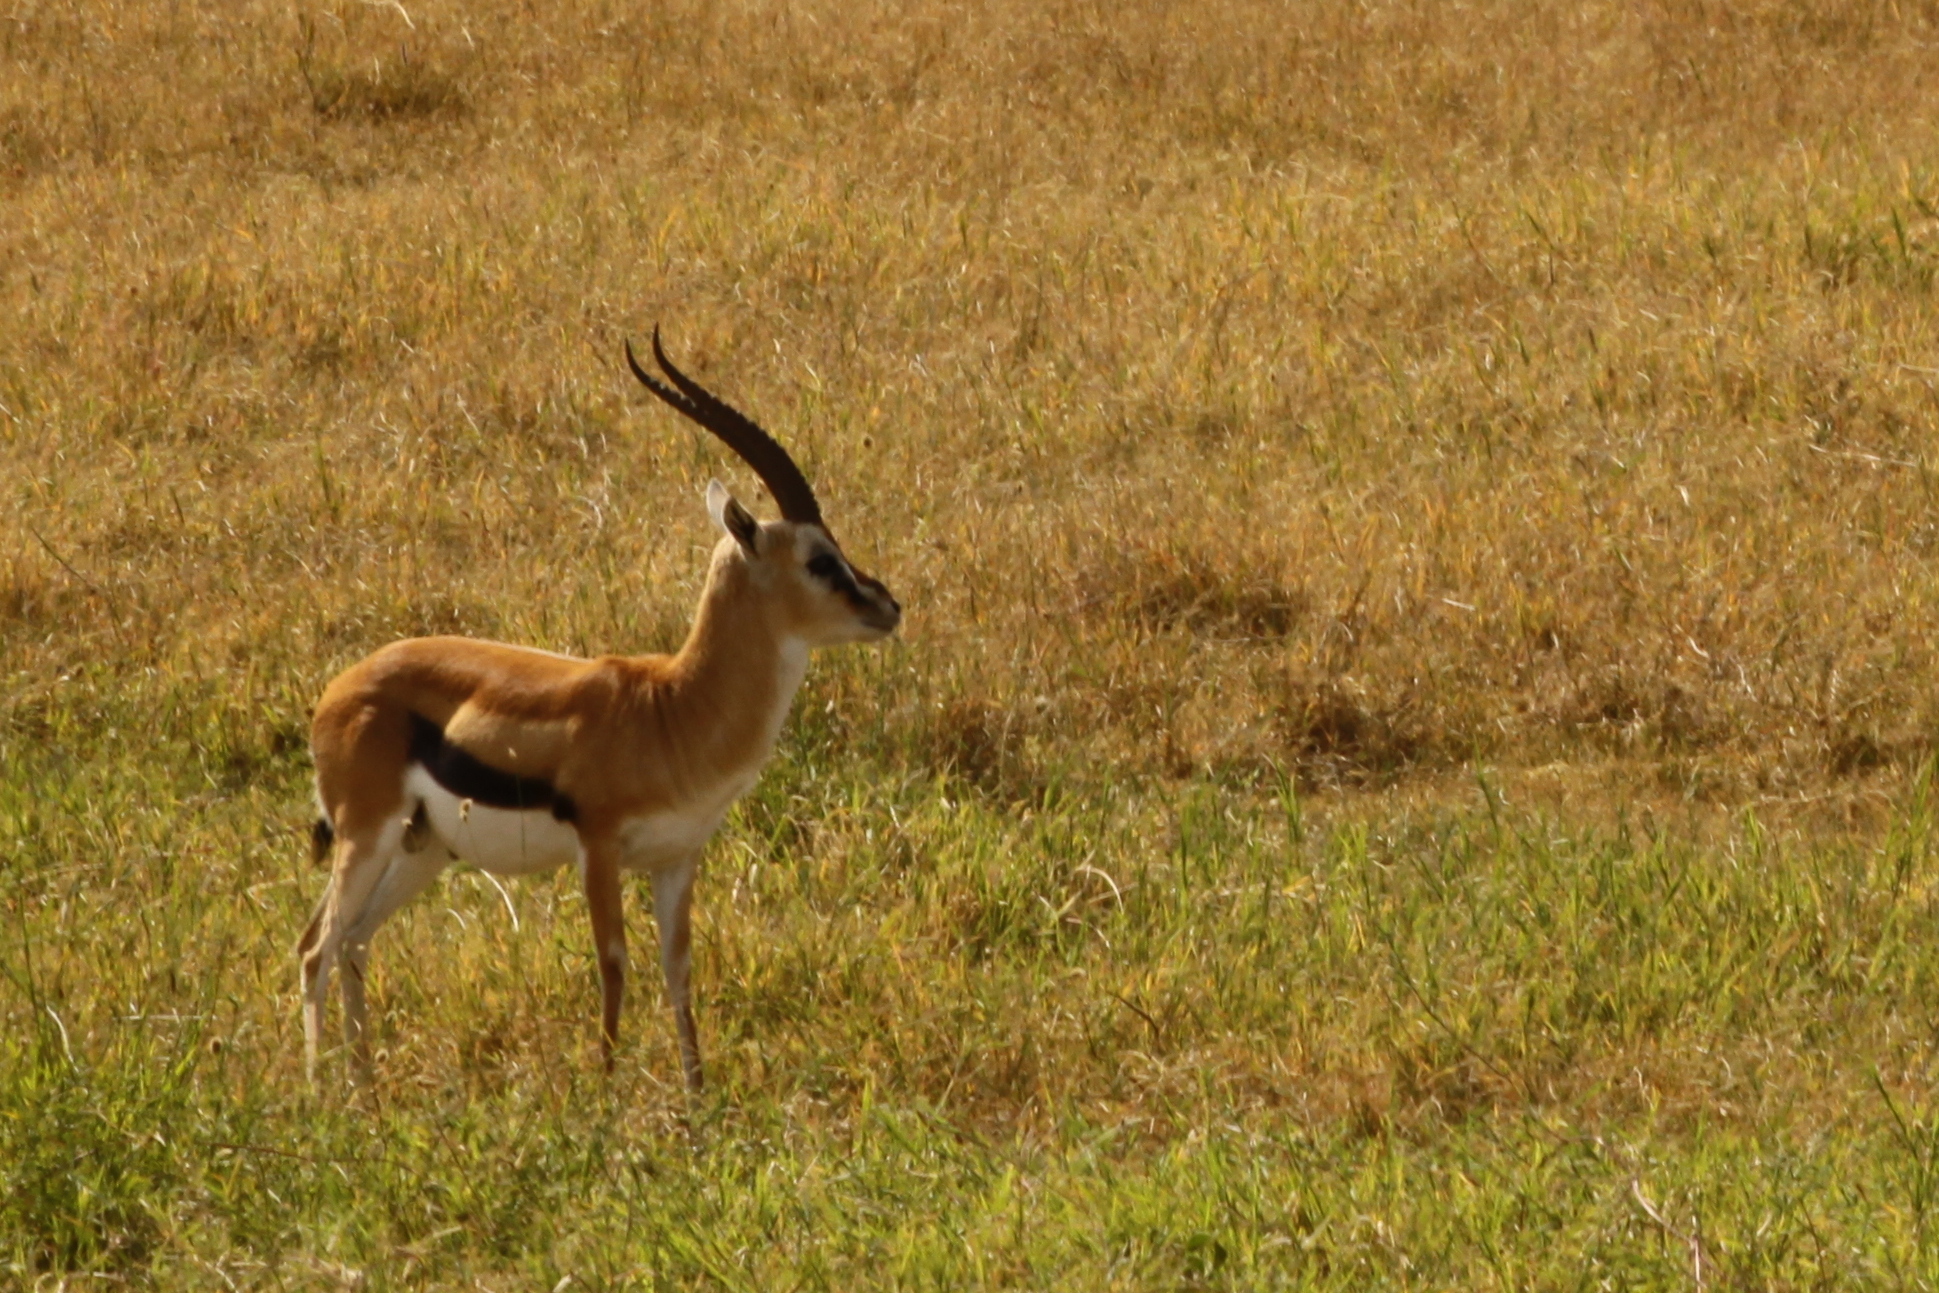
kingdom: Animalia
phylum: Chordata
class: Mammalia
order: Artiodactyla
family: Bovidae
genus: Eudorcas
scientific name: Eudorcas thomsonii
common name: Thomson's gazelle
